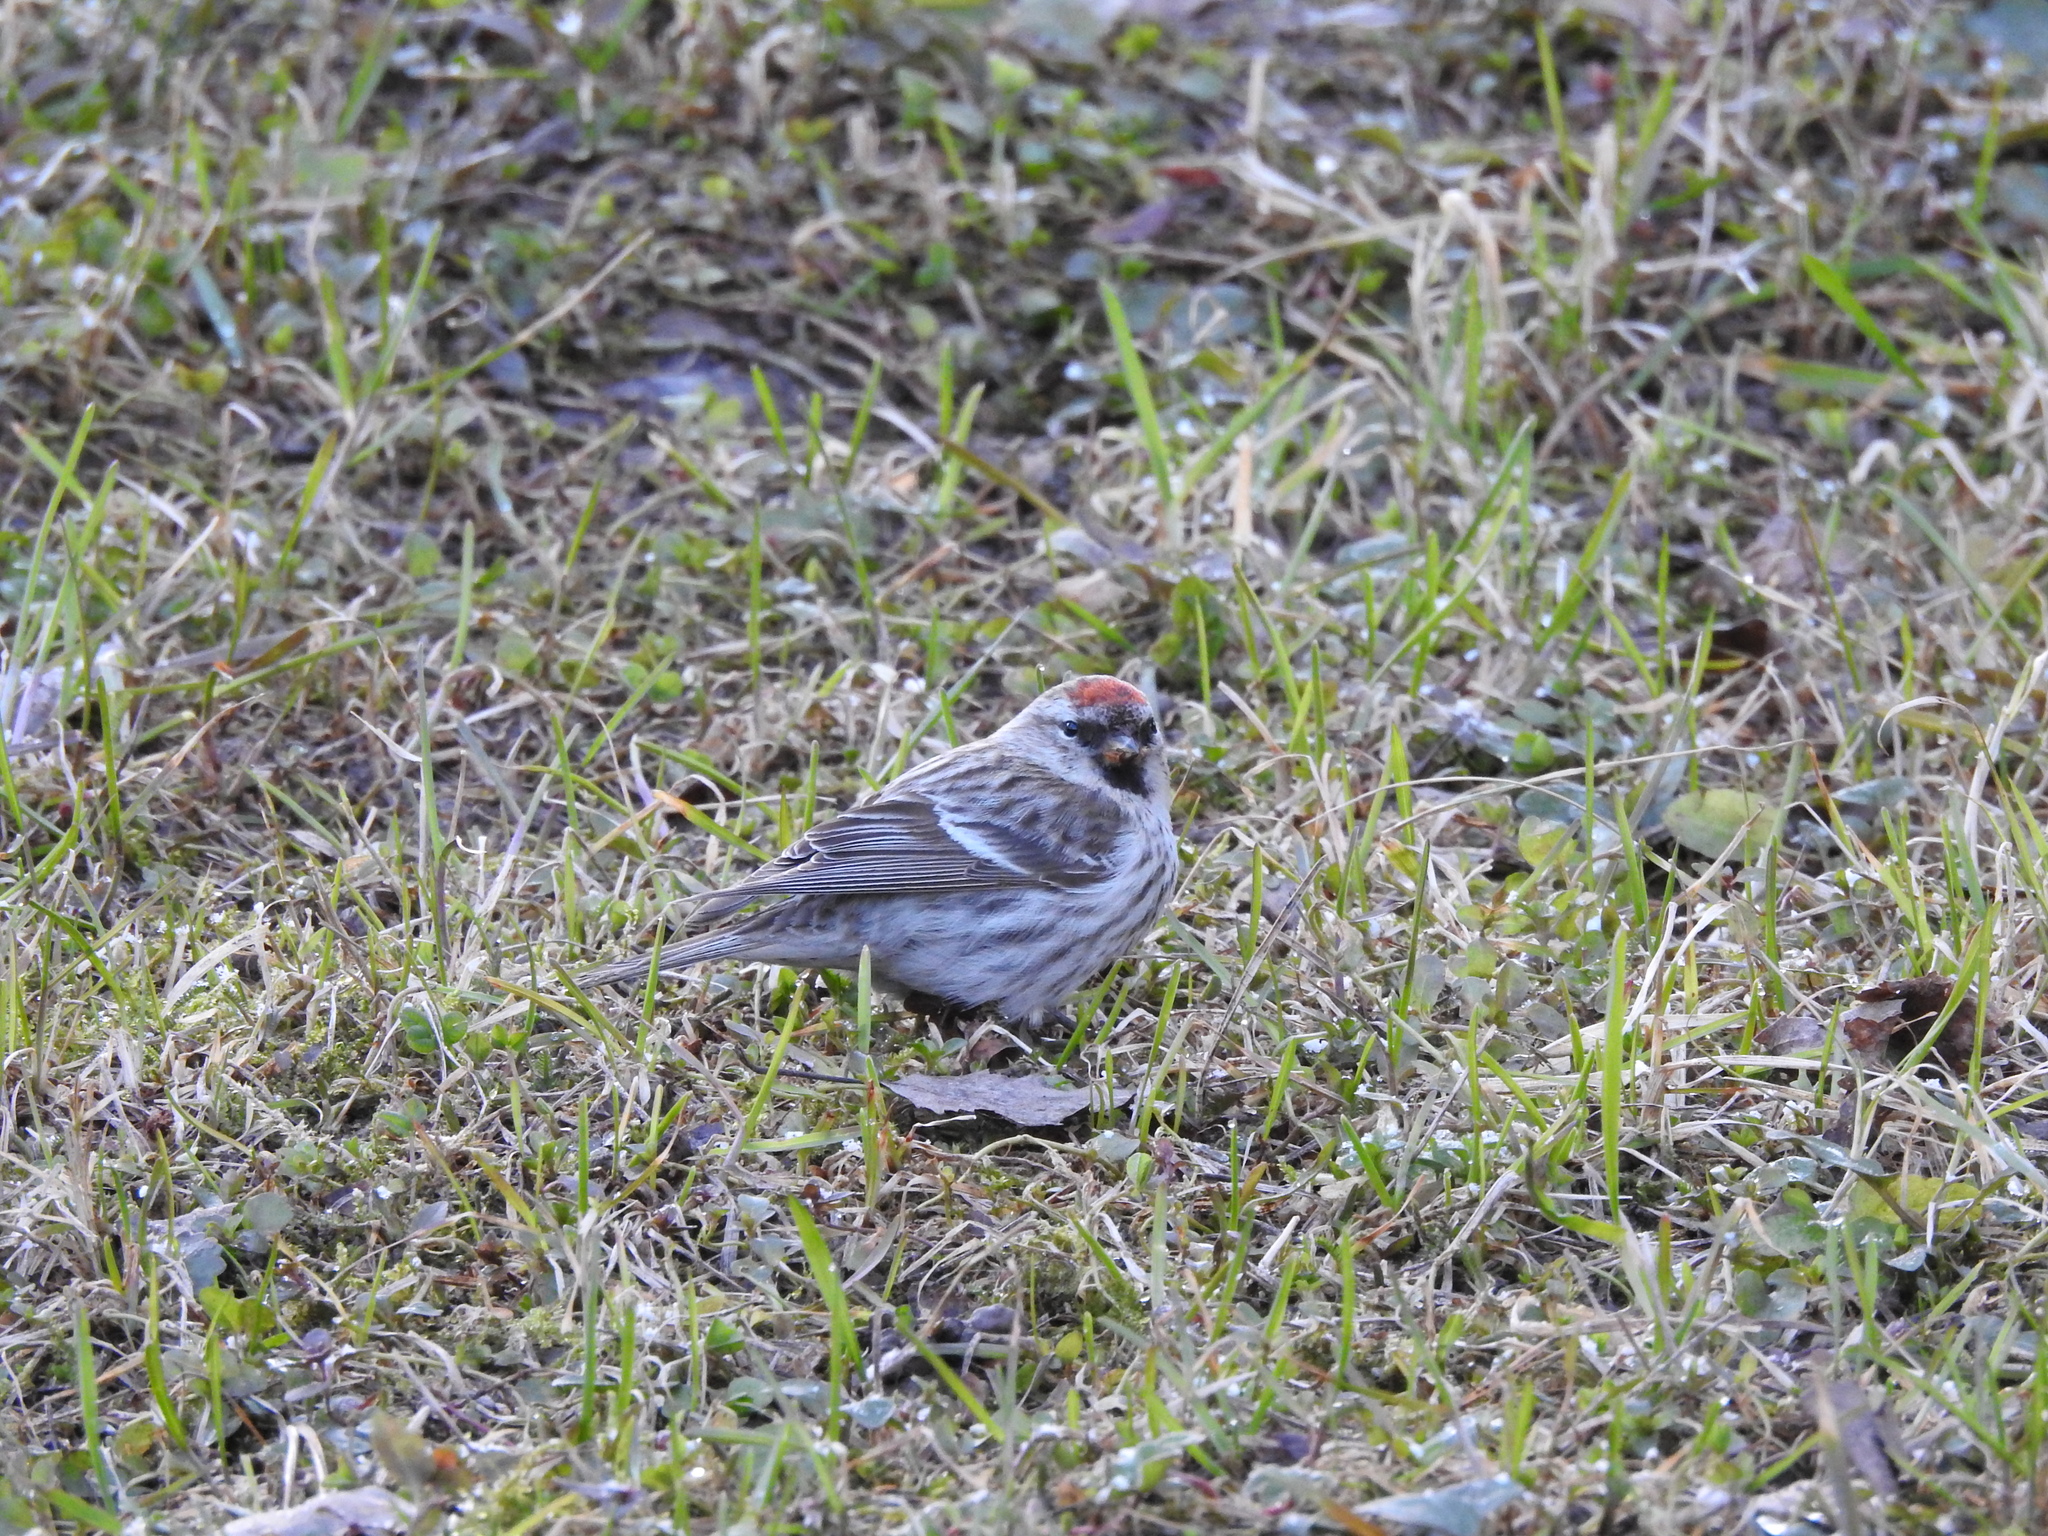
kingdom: Animalia
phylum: Chordata
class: Aves
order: Passeriformes
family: Fringillidae
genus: Acanthis
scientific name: Acanthis flammea
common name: Common redpoll
